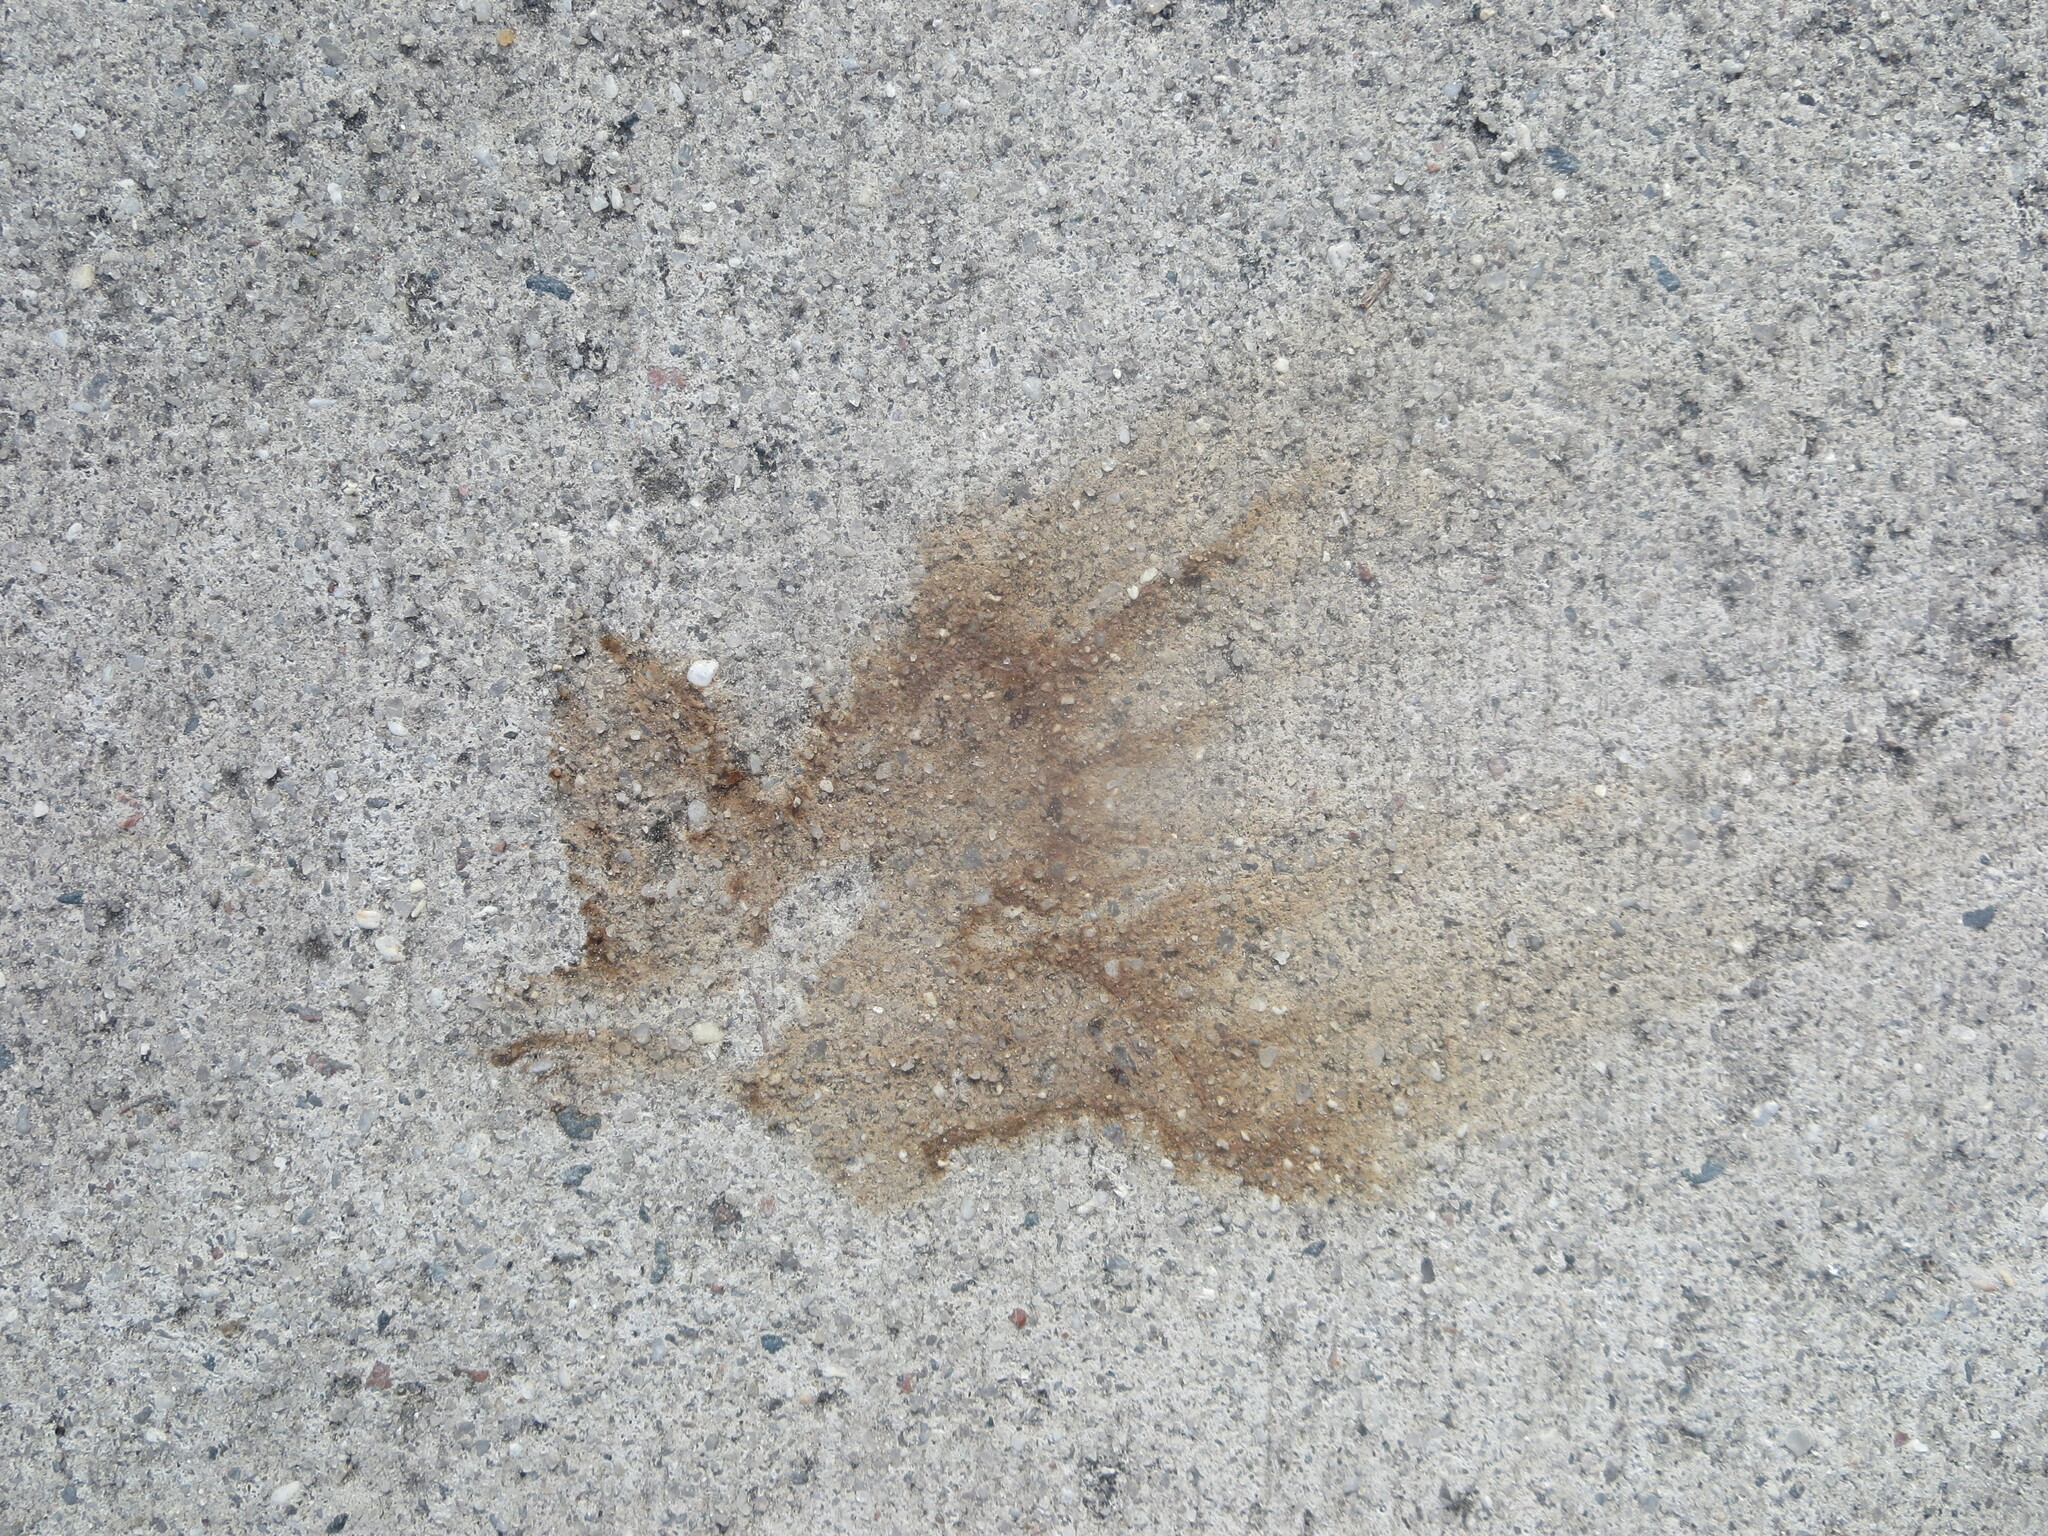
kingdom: Plantae
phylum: Tracheophyta
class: Magnoliopsida
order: Saxifragales
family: Altingiaceae
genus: Liquidambar
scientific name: Liquidambar styraciflua
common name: Sweet gum
